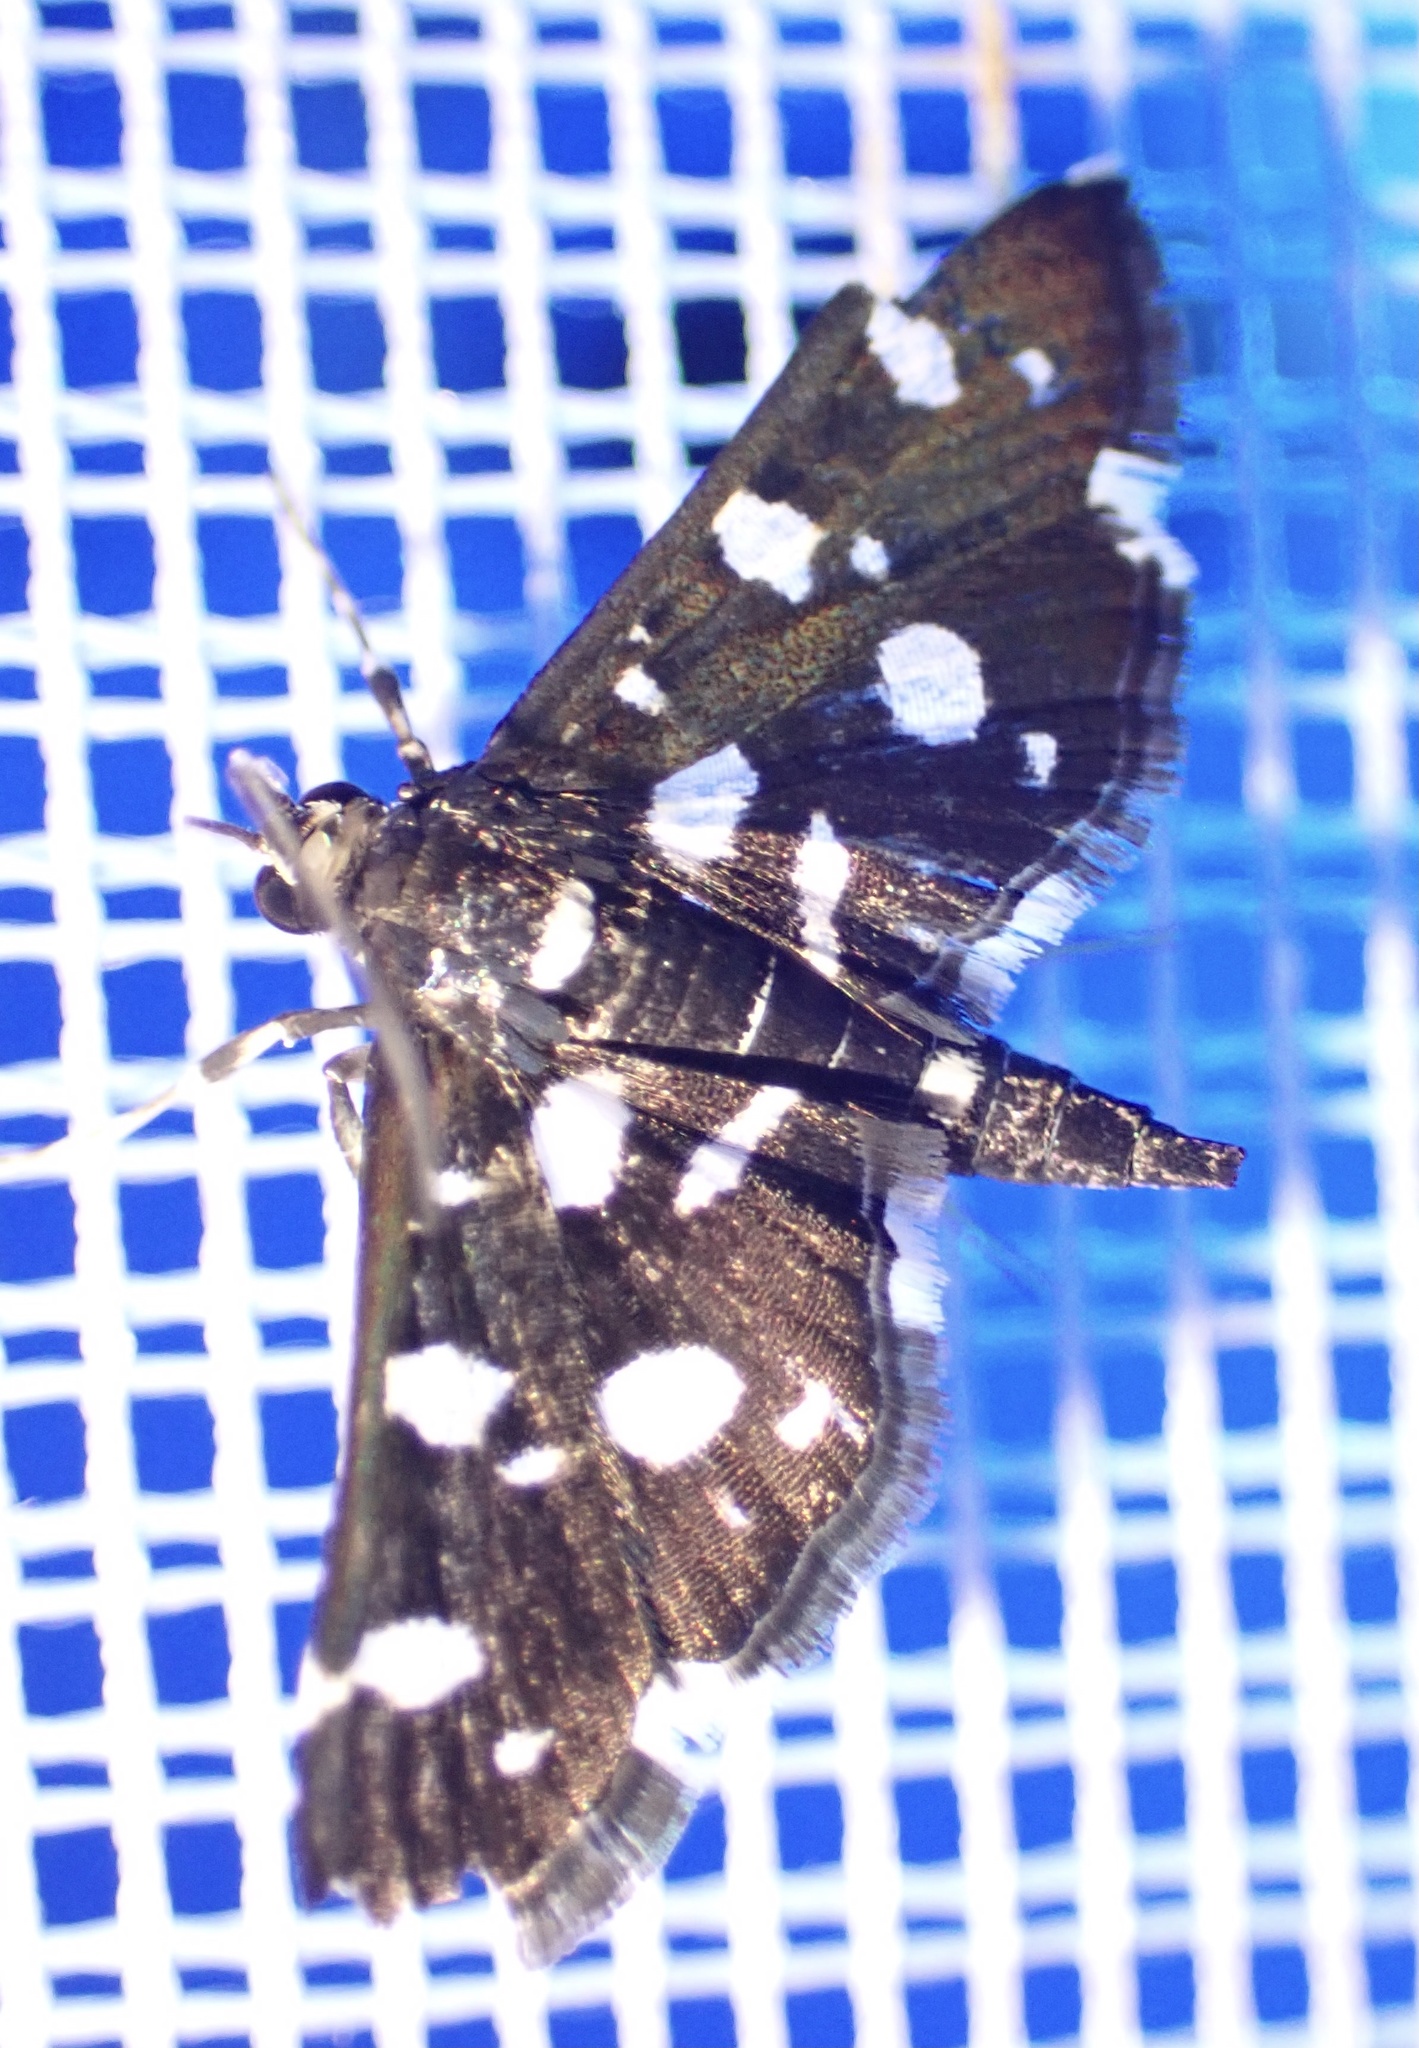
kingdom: Animalia
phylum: Arthropoda
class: Insecta
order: Lepidoptera
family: Crambidae
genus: Bocchoris
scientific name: Bocchoris inspersalis
